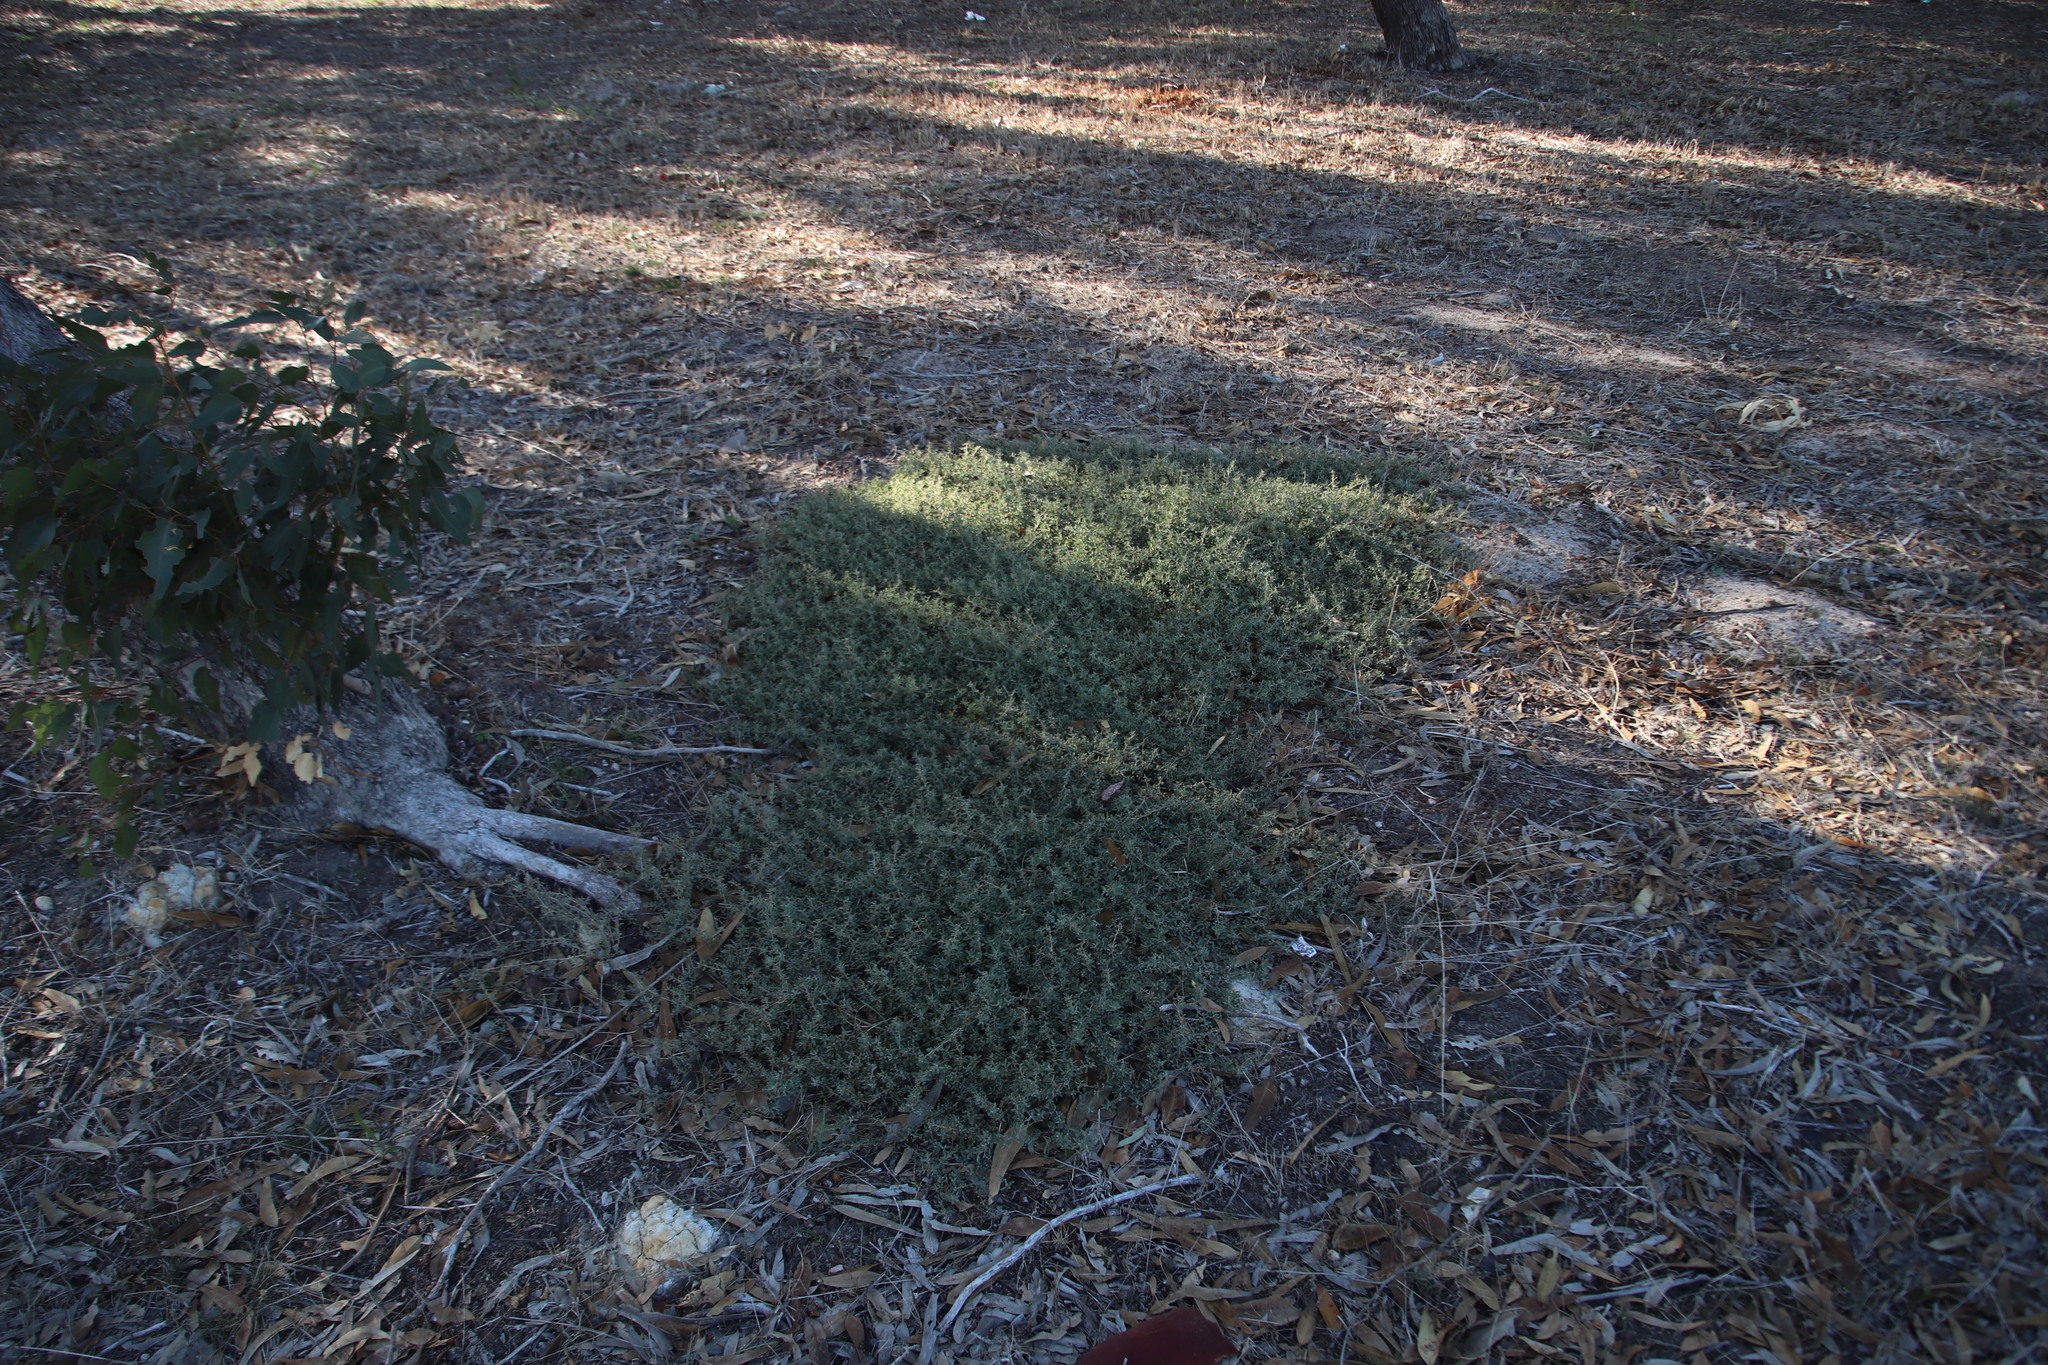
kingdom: Plantae
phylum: Tracheophyta
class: Magnoliopsida
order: Caryophyllales
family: Amaranthaceae
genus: Atriplex
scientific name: Atriplex semibaccata
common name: Australian saltbush
